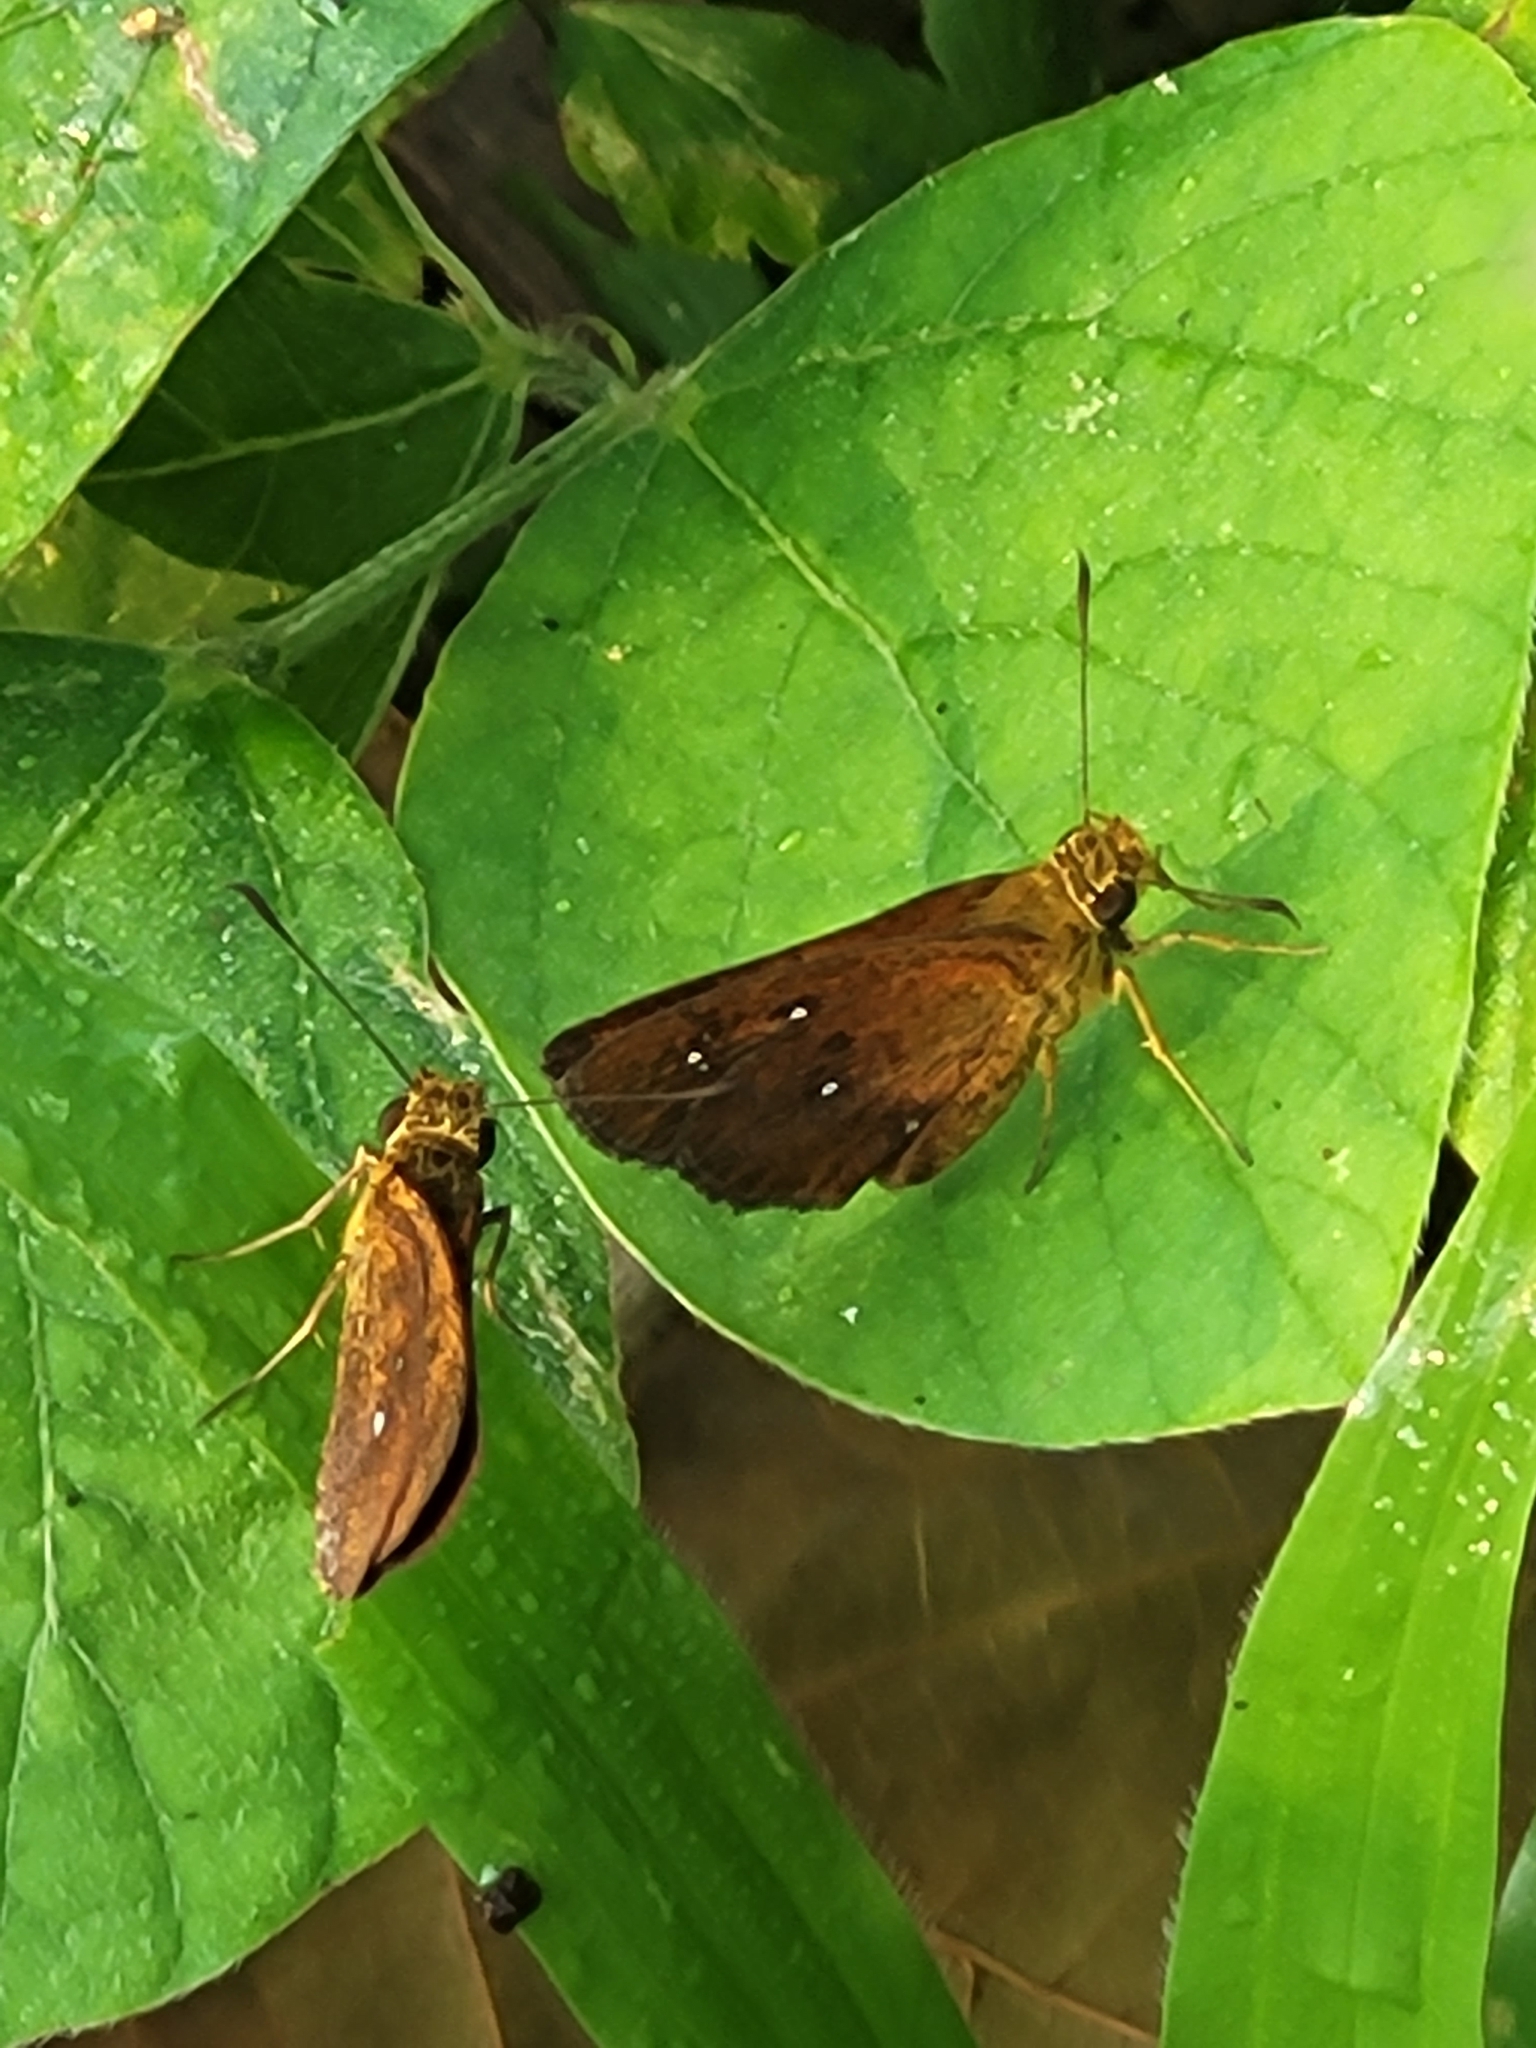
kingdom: Animalia
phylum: Arthropoda
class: Insecta
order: Lepidoptera
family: Hesperiidae
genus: Iambrix
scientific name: Iambrix salsala
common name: Chestnut bob
